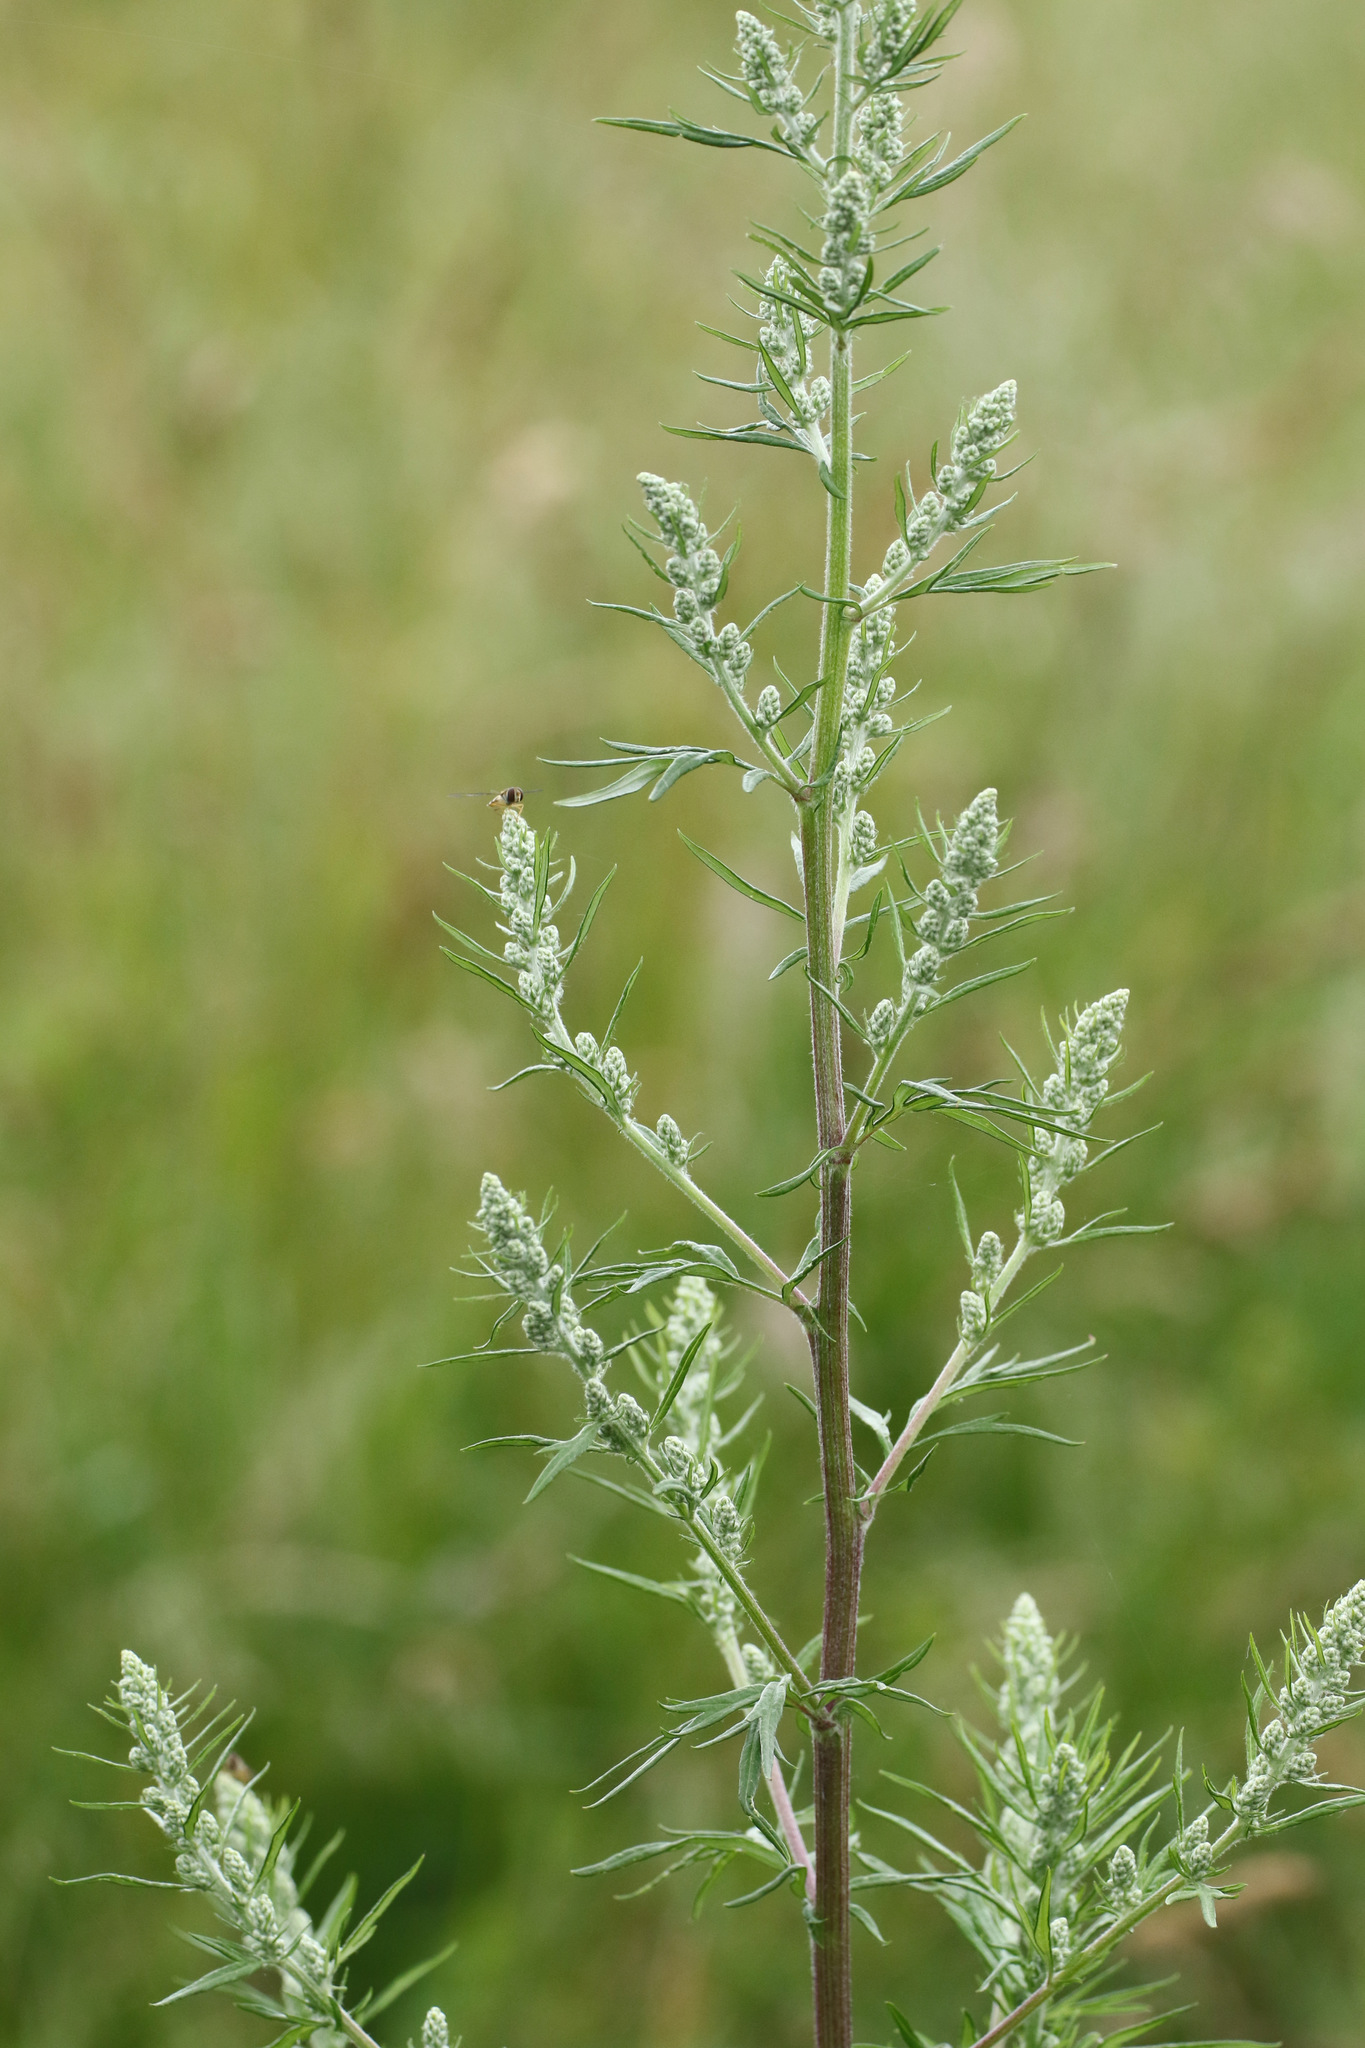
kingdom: Plantae
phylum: Tracheophyta
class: Magnoliopsida
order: Asterales
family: Asteraceae
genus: Artemisia
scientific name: Artemisia vulgaris
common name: Mugwort
